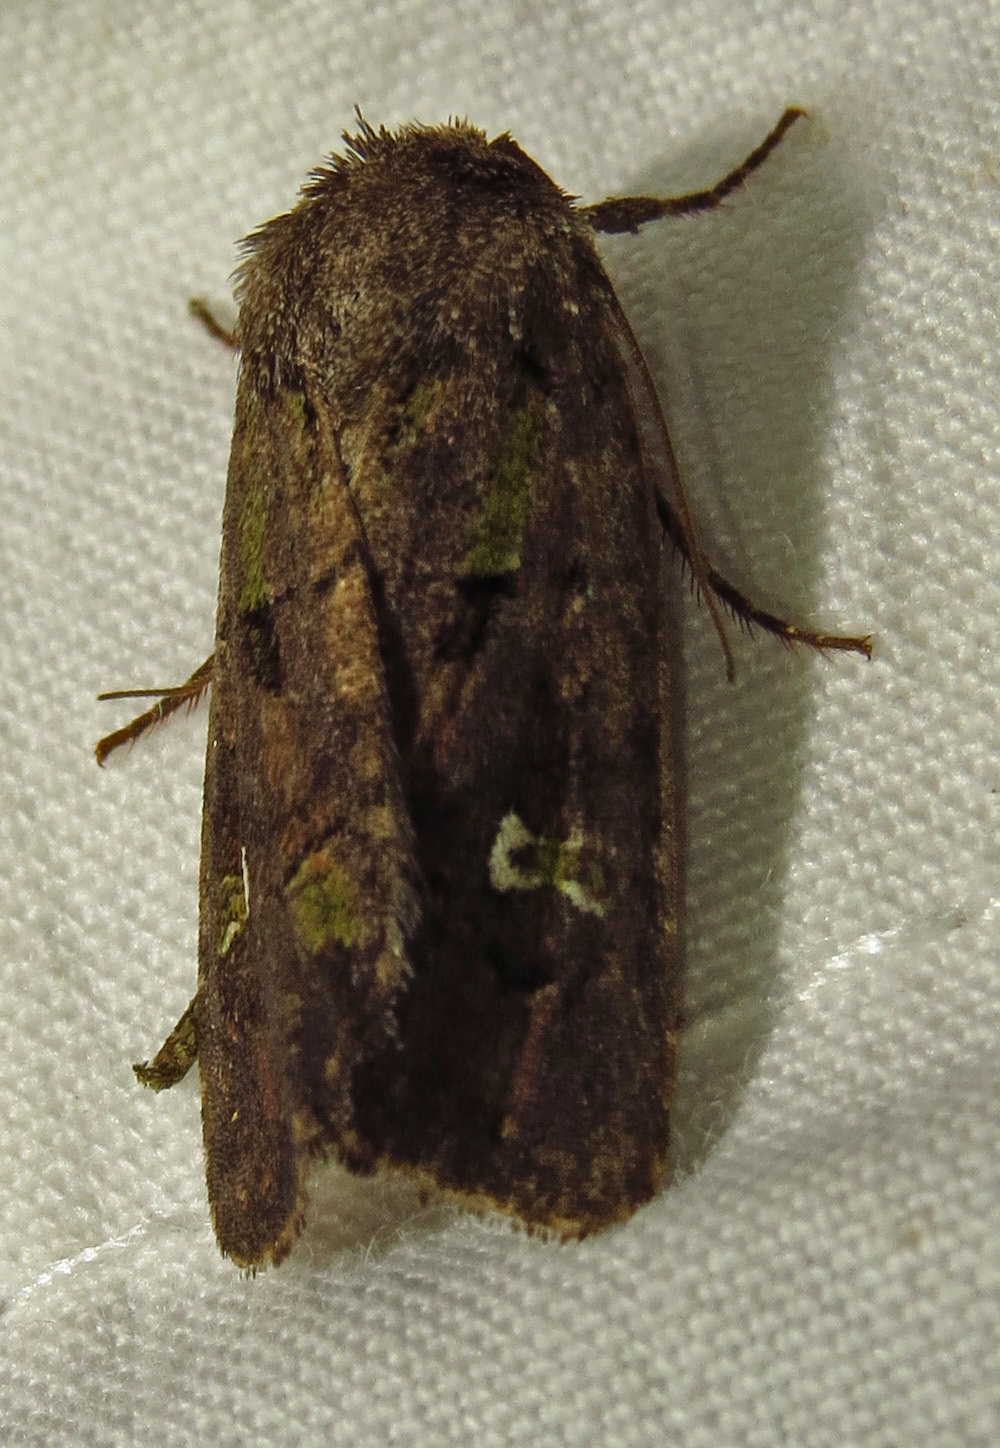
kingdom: Animalia
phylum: Arthropoda
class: Insecta
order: Lepidoptera
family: Noctuidae
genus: Lacinipolia
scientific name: Lacinipolia renigera
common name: Kidney-spotted minor
